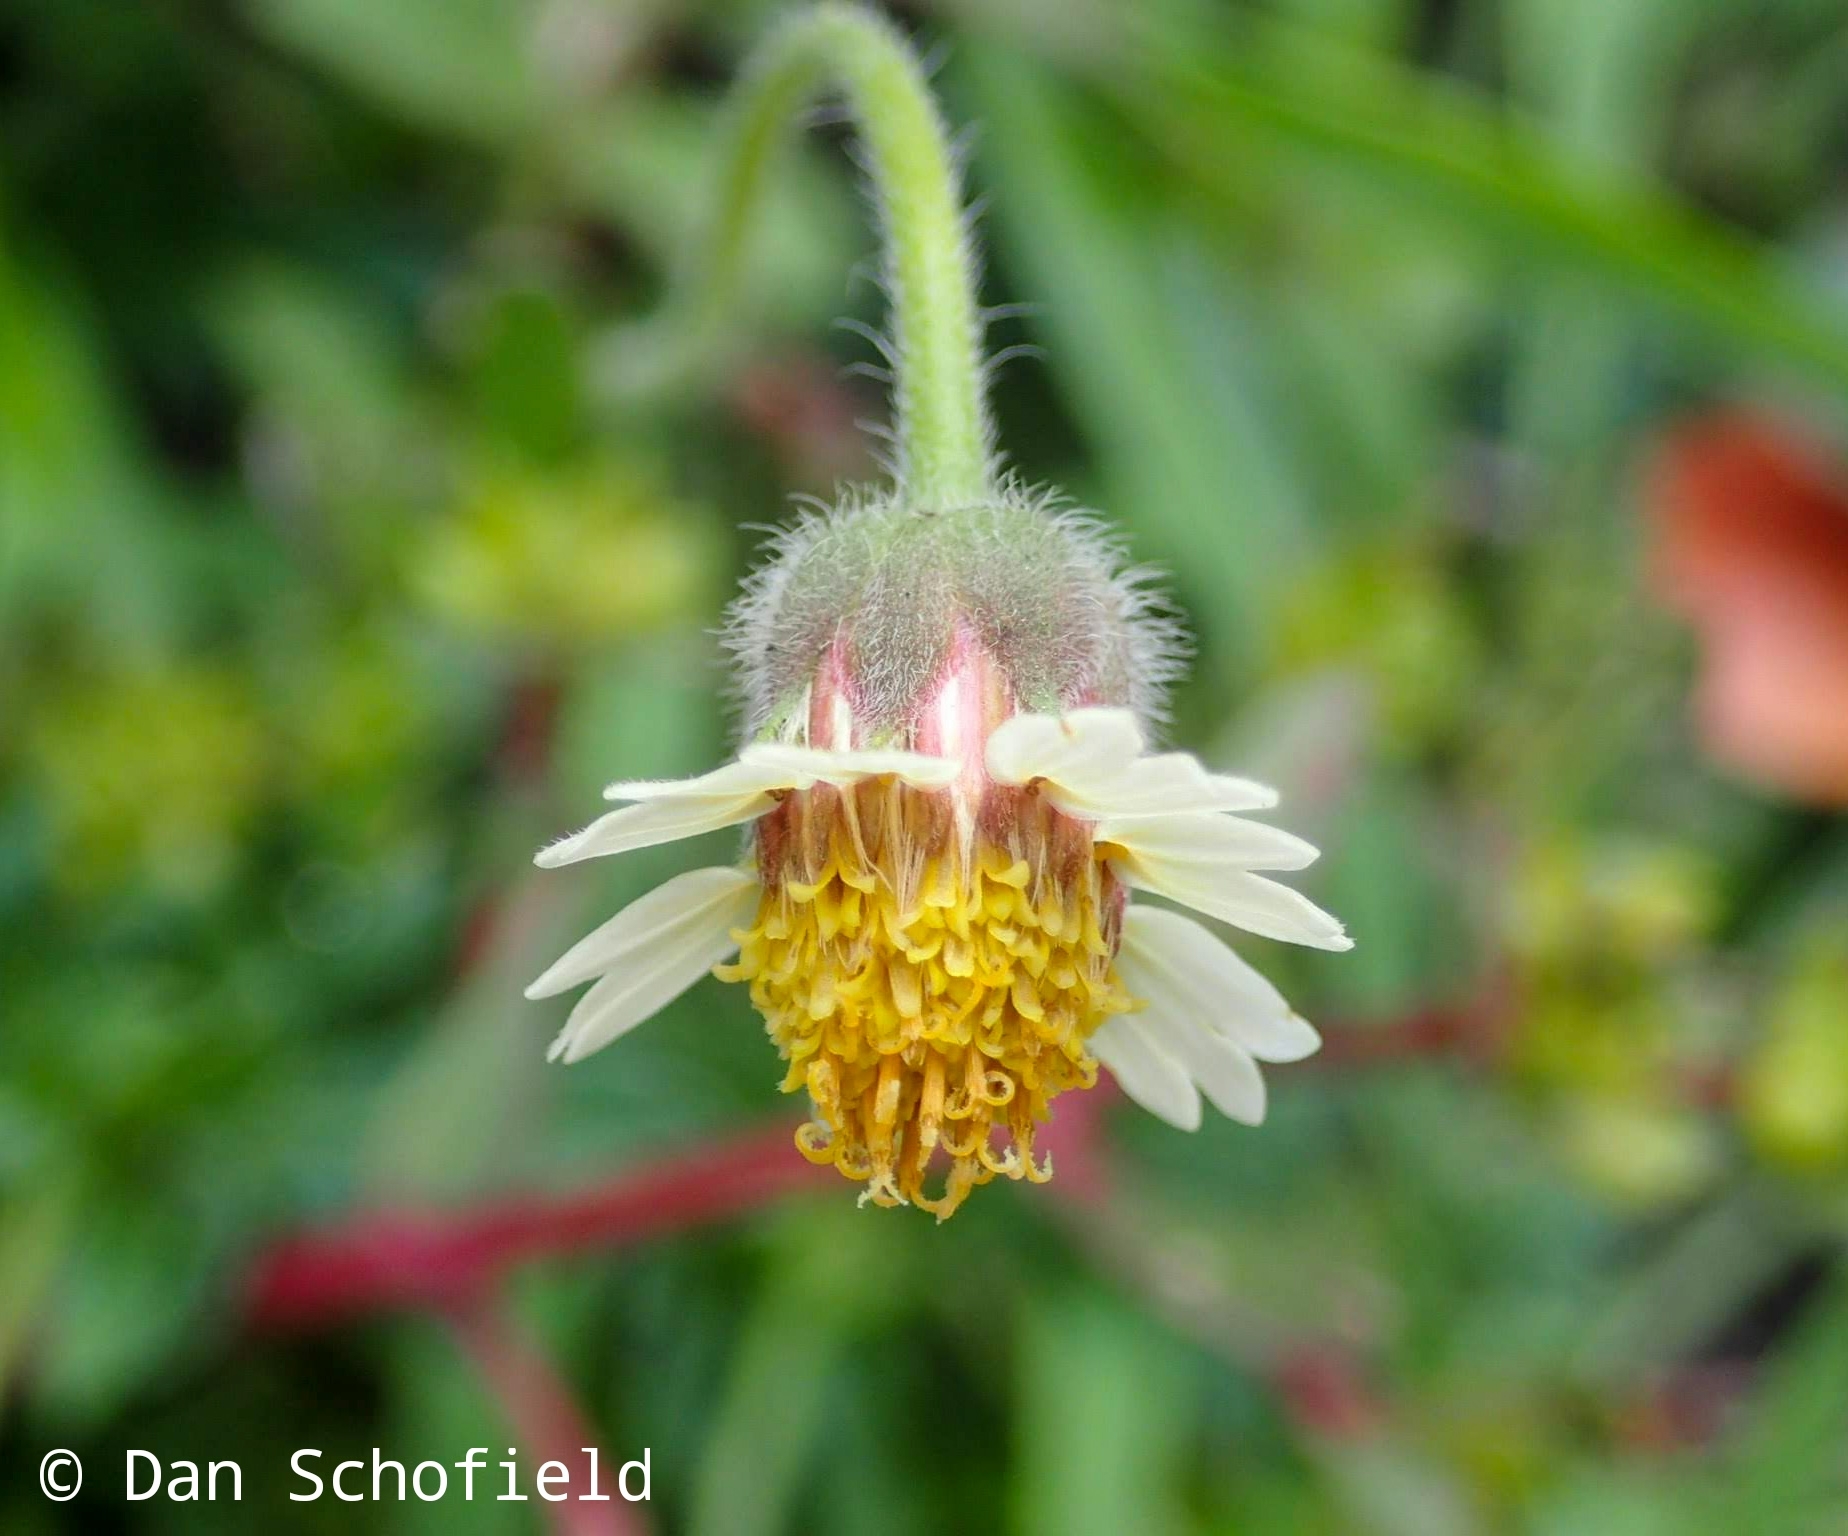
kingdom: Plantae
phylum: Tracheophyta
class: Magnoliopsida
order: Asterales
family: Asteraceae
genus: Tridax
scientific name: Tridax procumbens
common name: Coatbuttons
